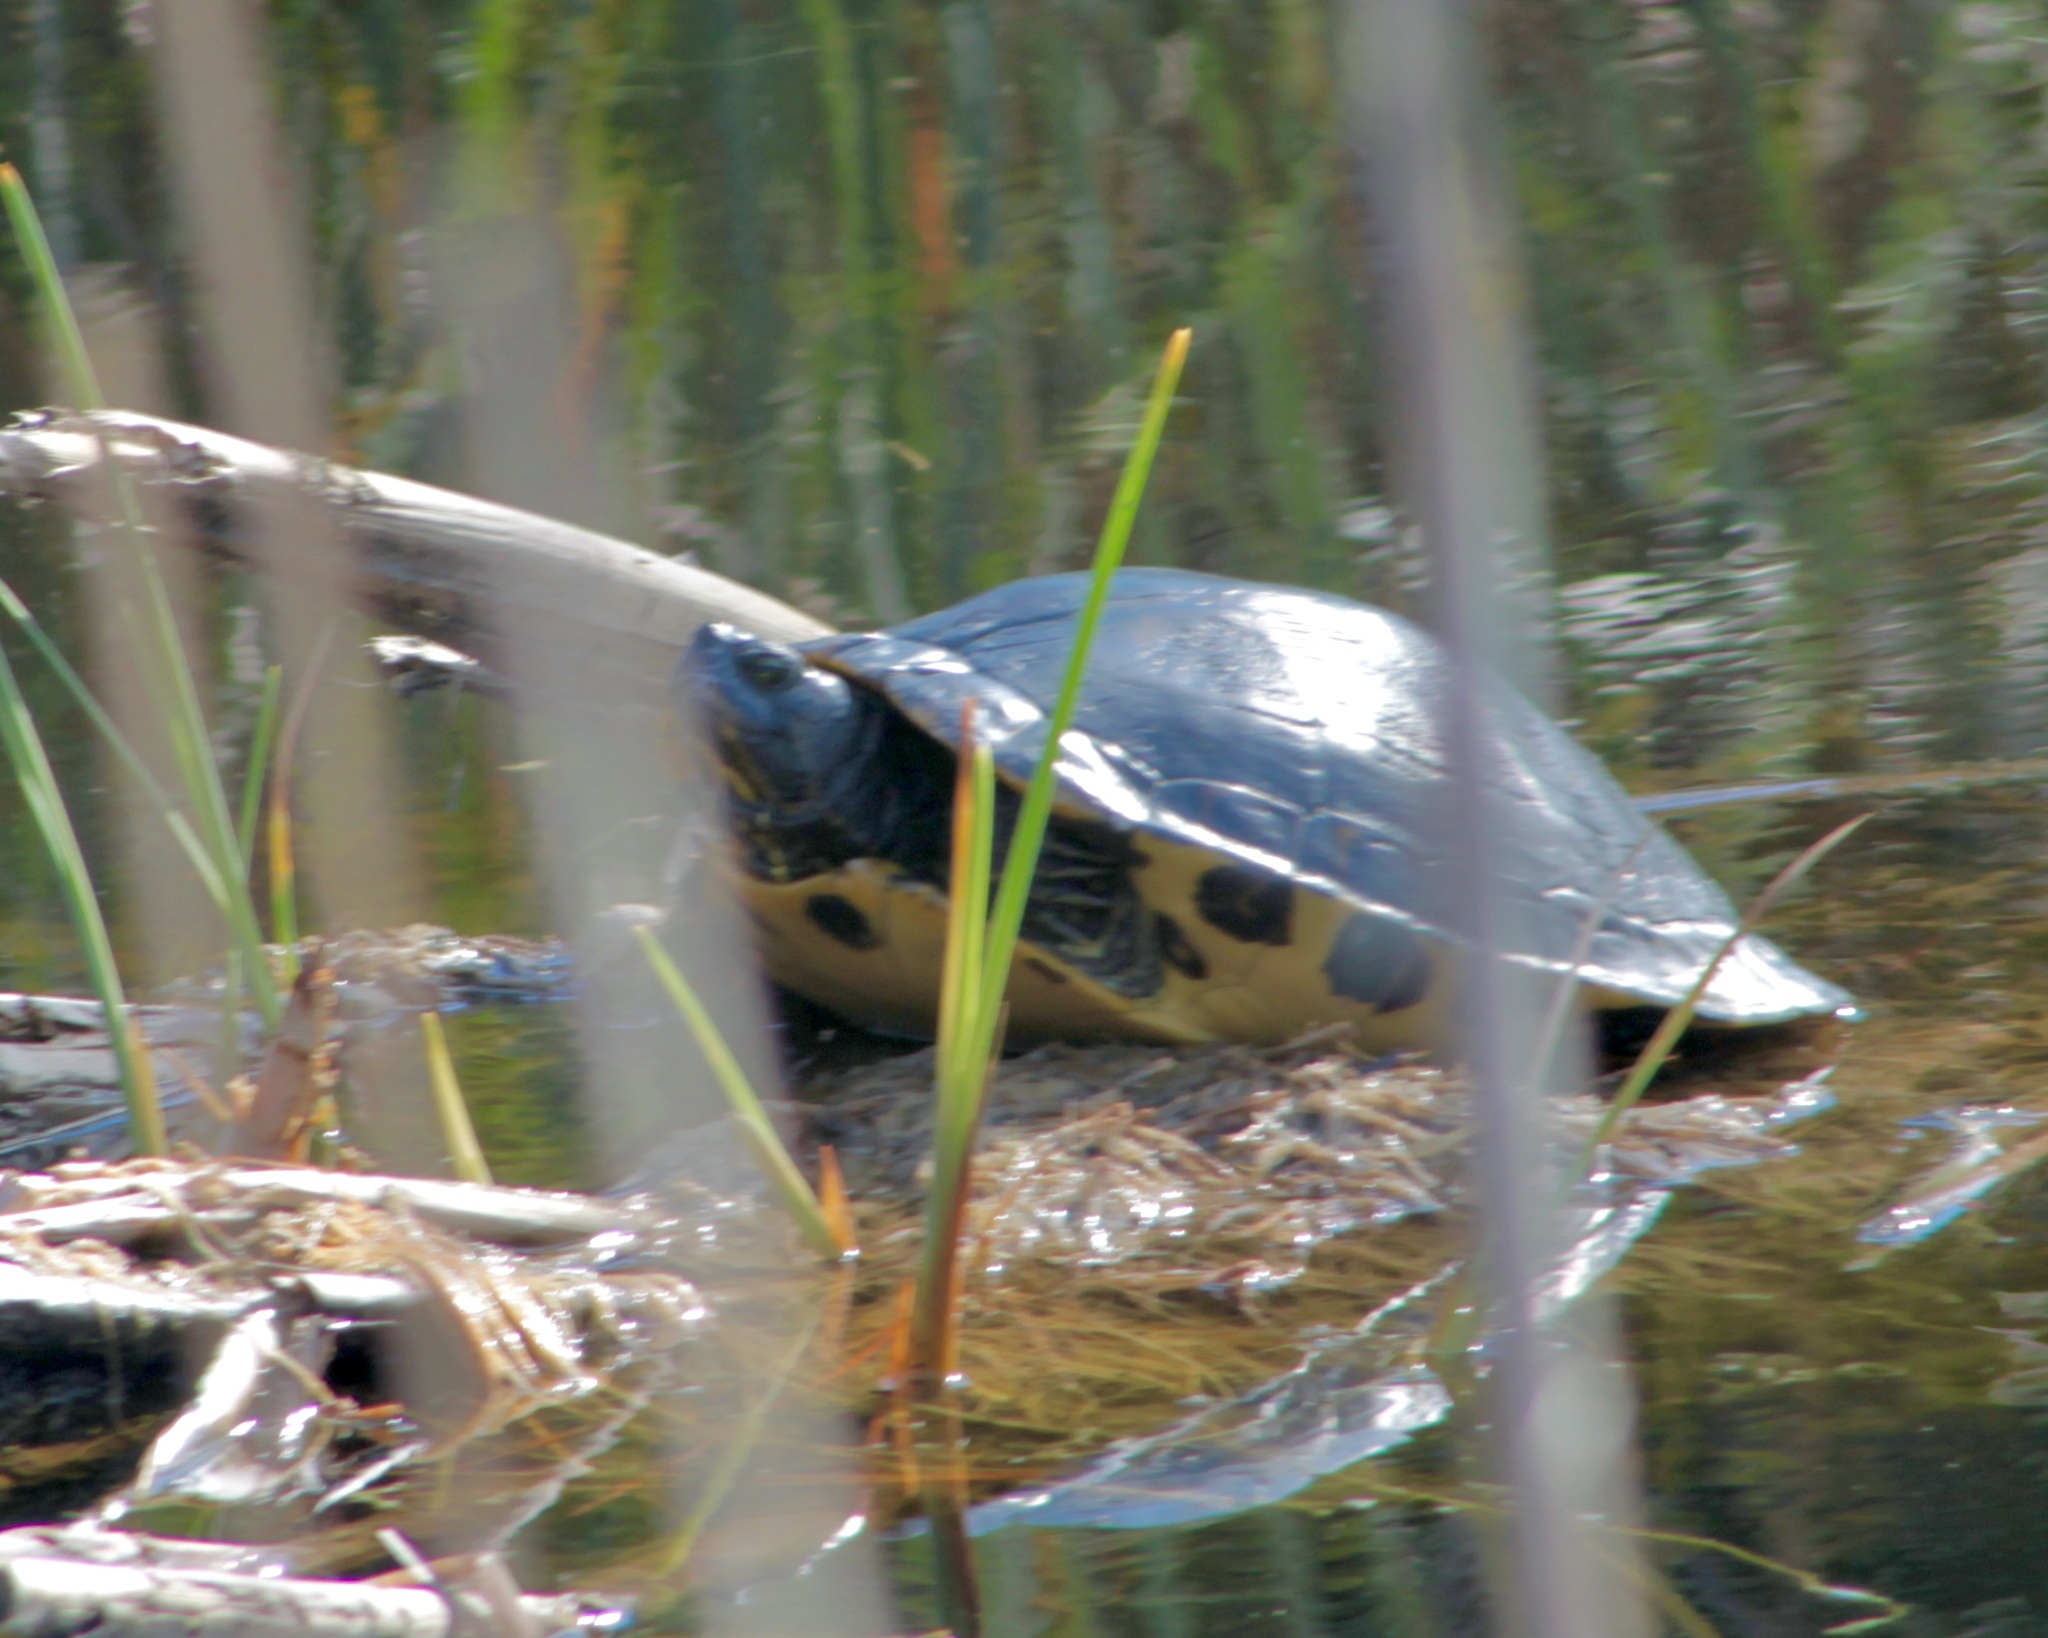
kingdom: Animalia
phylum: Chordata
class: Testudines
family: Emydidae
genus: Trachemys
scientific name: Trachemys scripta
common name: Slider
